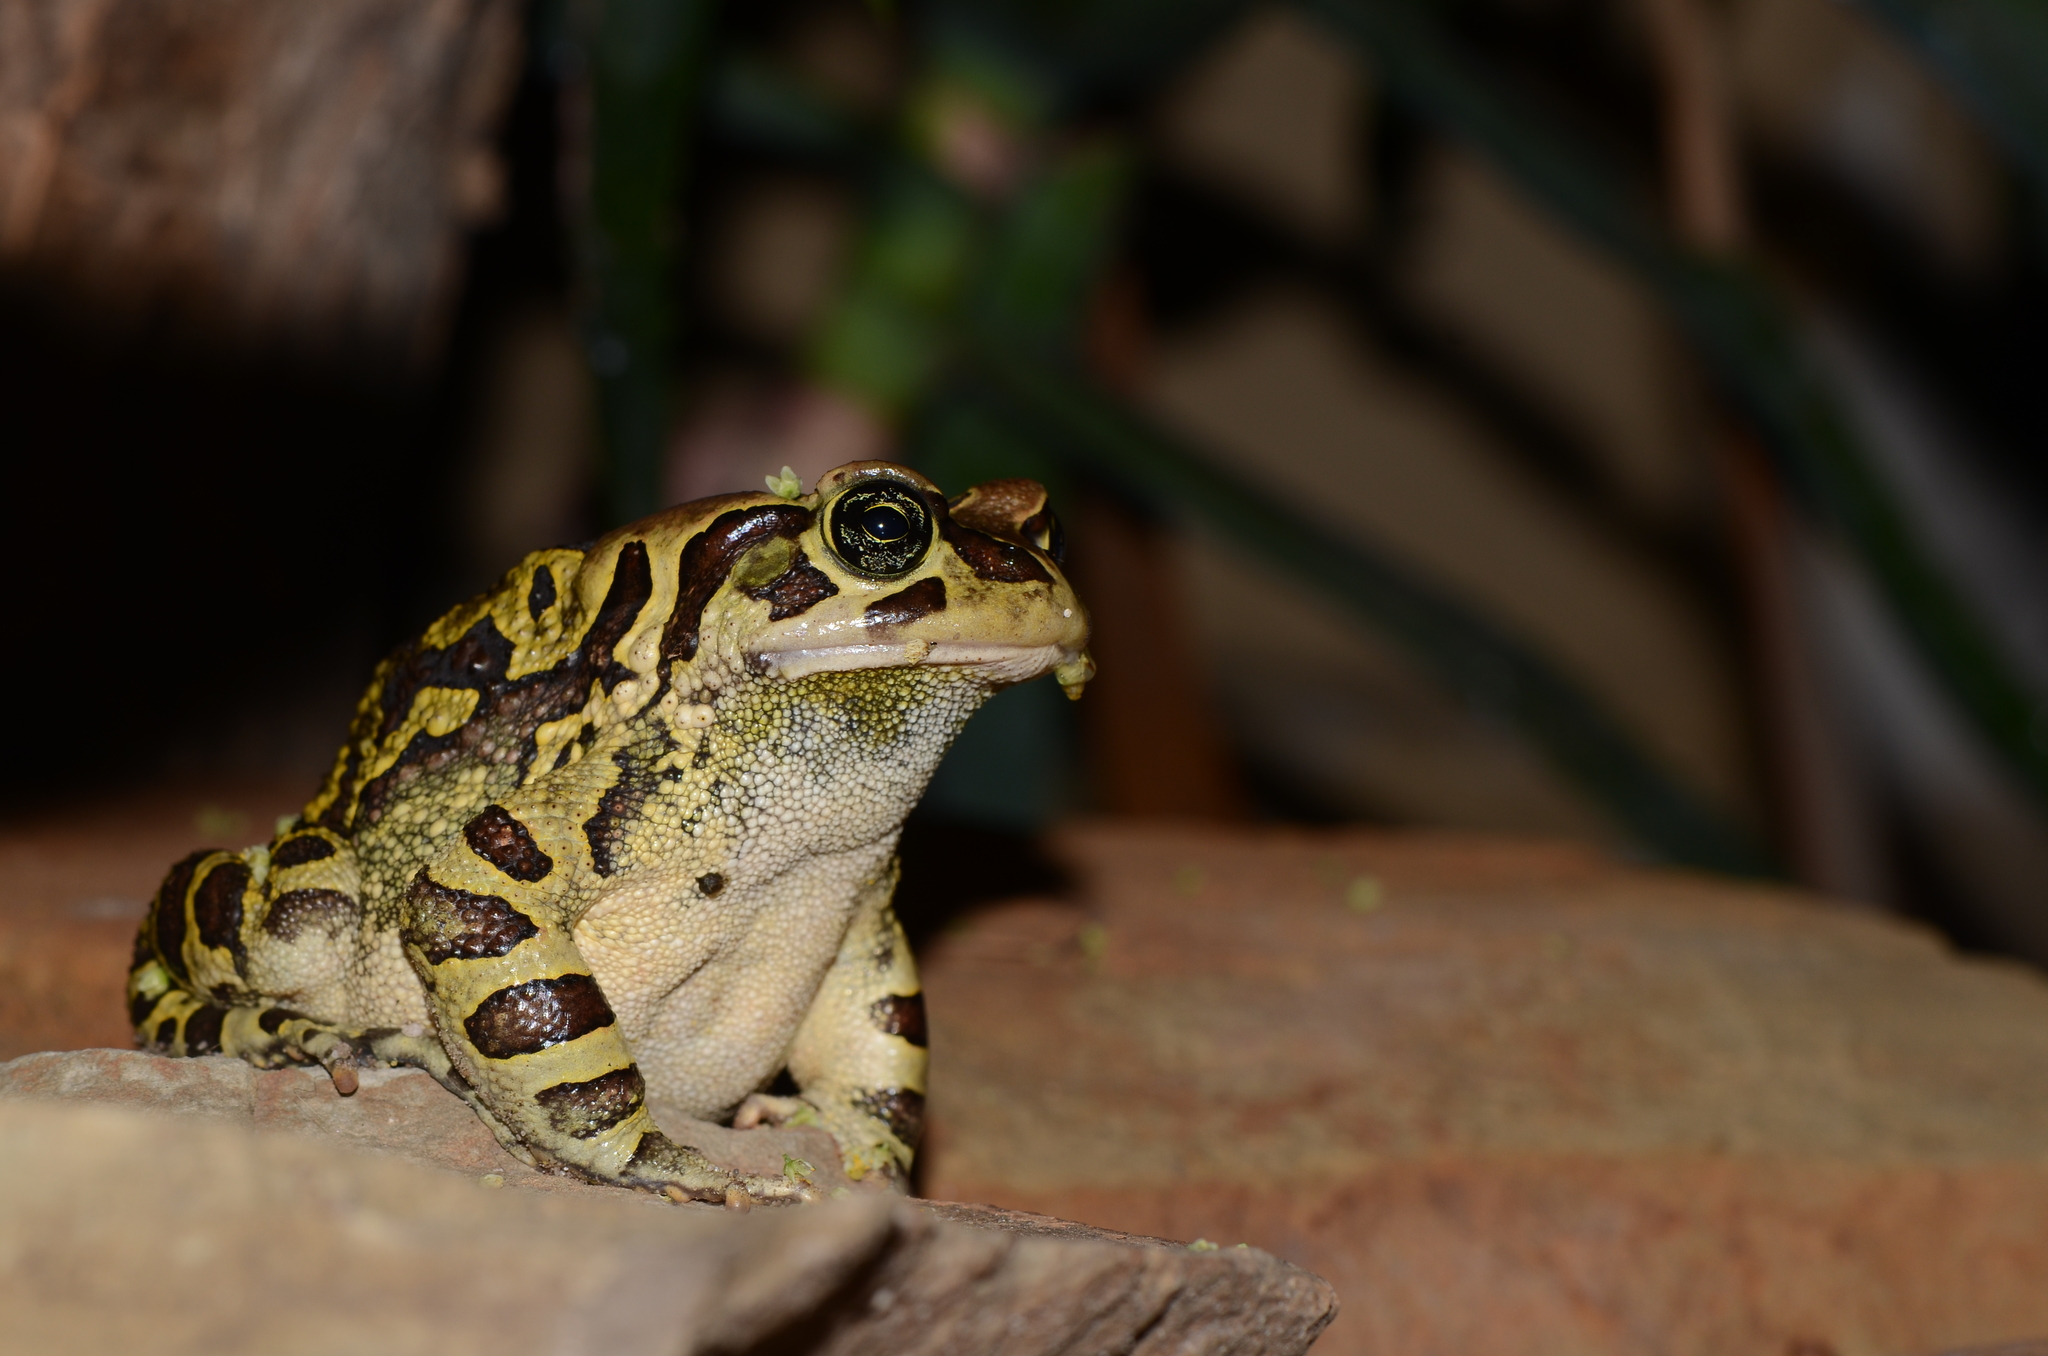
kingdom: Animalia
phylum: Chordata
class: Amphibia
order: Anura
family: Bufonidae
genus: Sclerophrys
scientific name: Sclerophrys pantherina
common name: Panther toad
